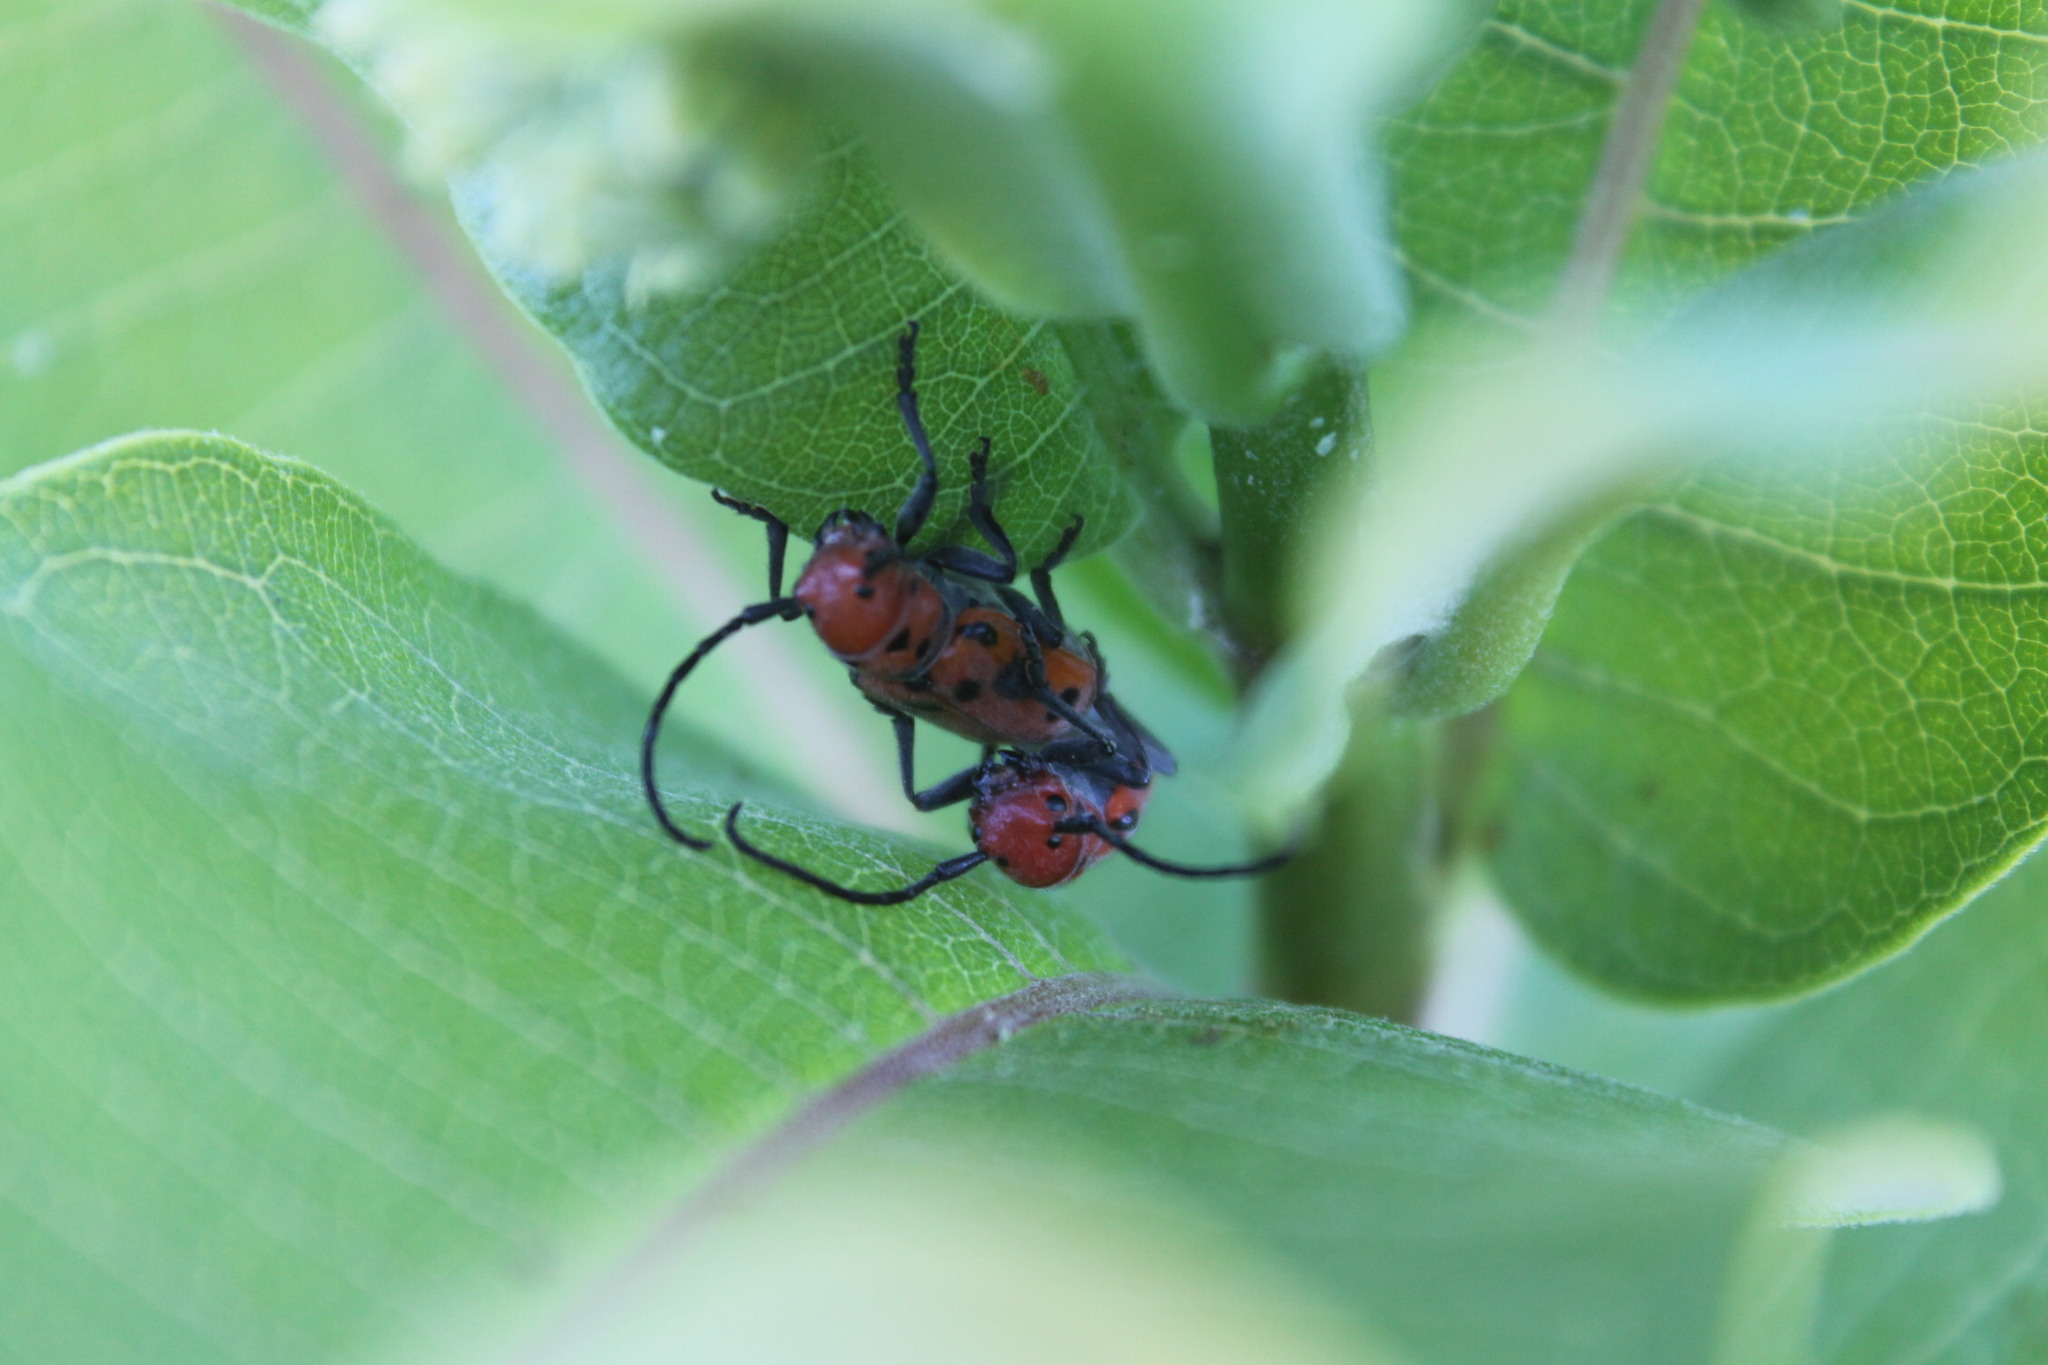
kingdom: Animalia
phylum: Arthropoda
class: Insecta
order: Coleoptera
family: Cerambycidae
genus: Tetraopes
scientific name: Tetraopes tetrophthalmus
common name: Red milkweed beetle
